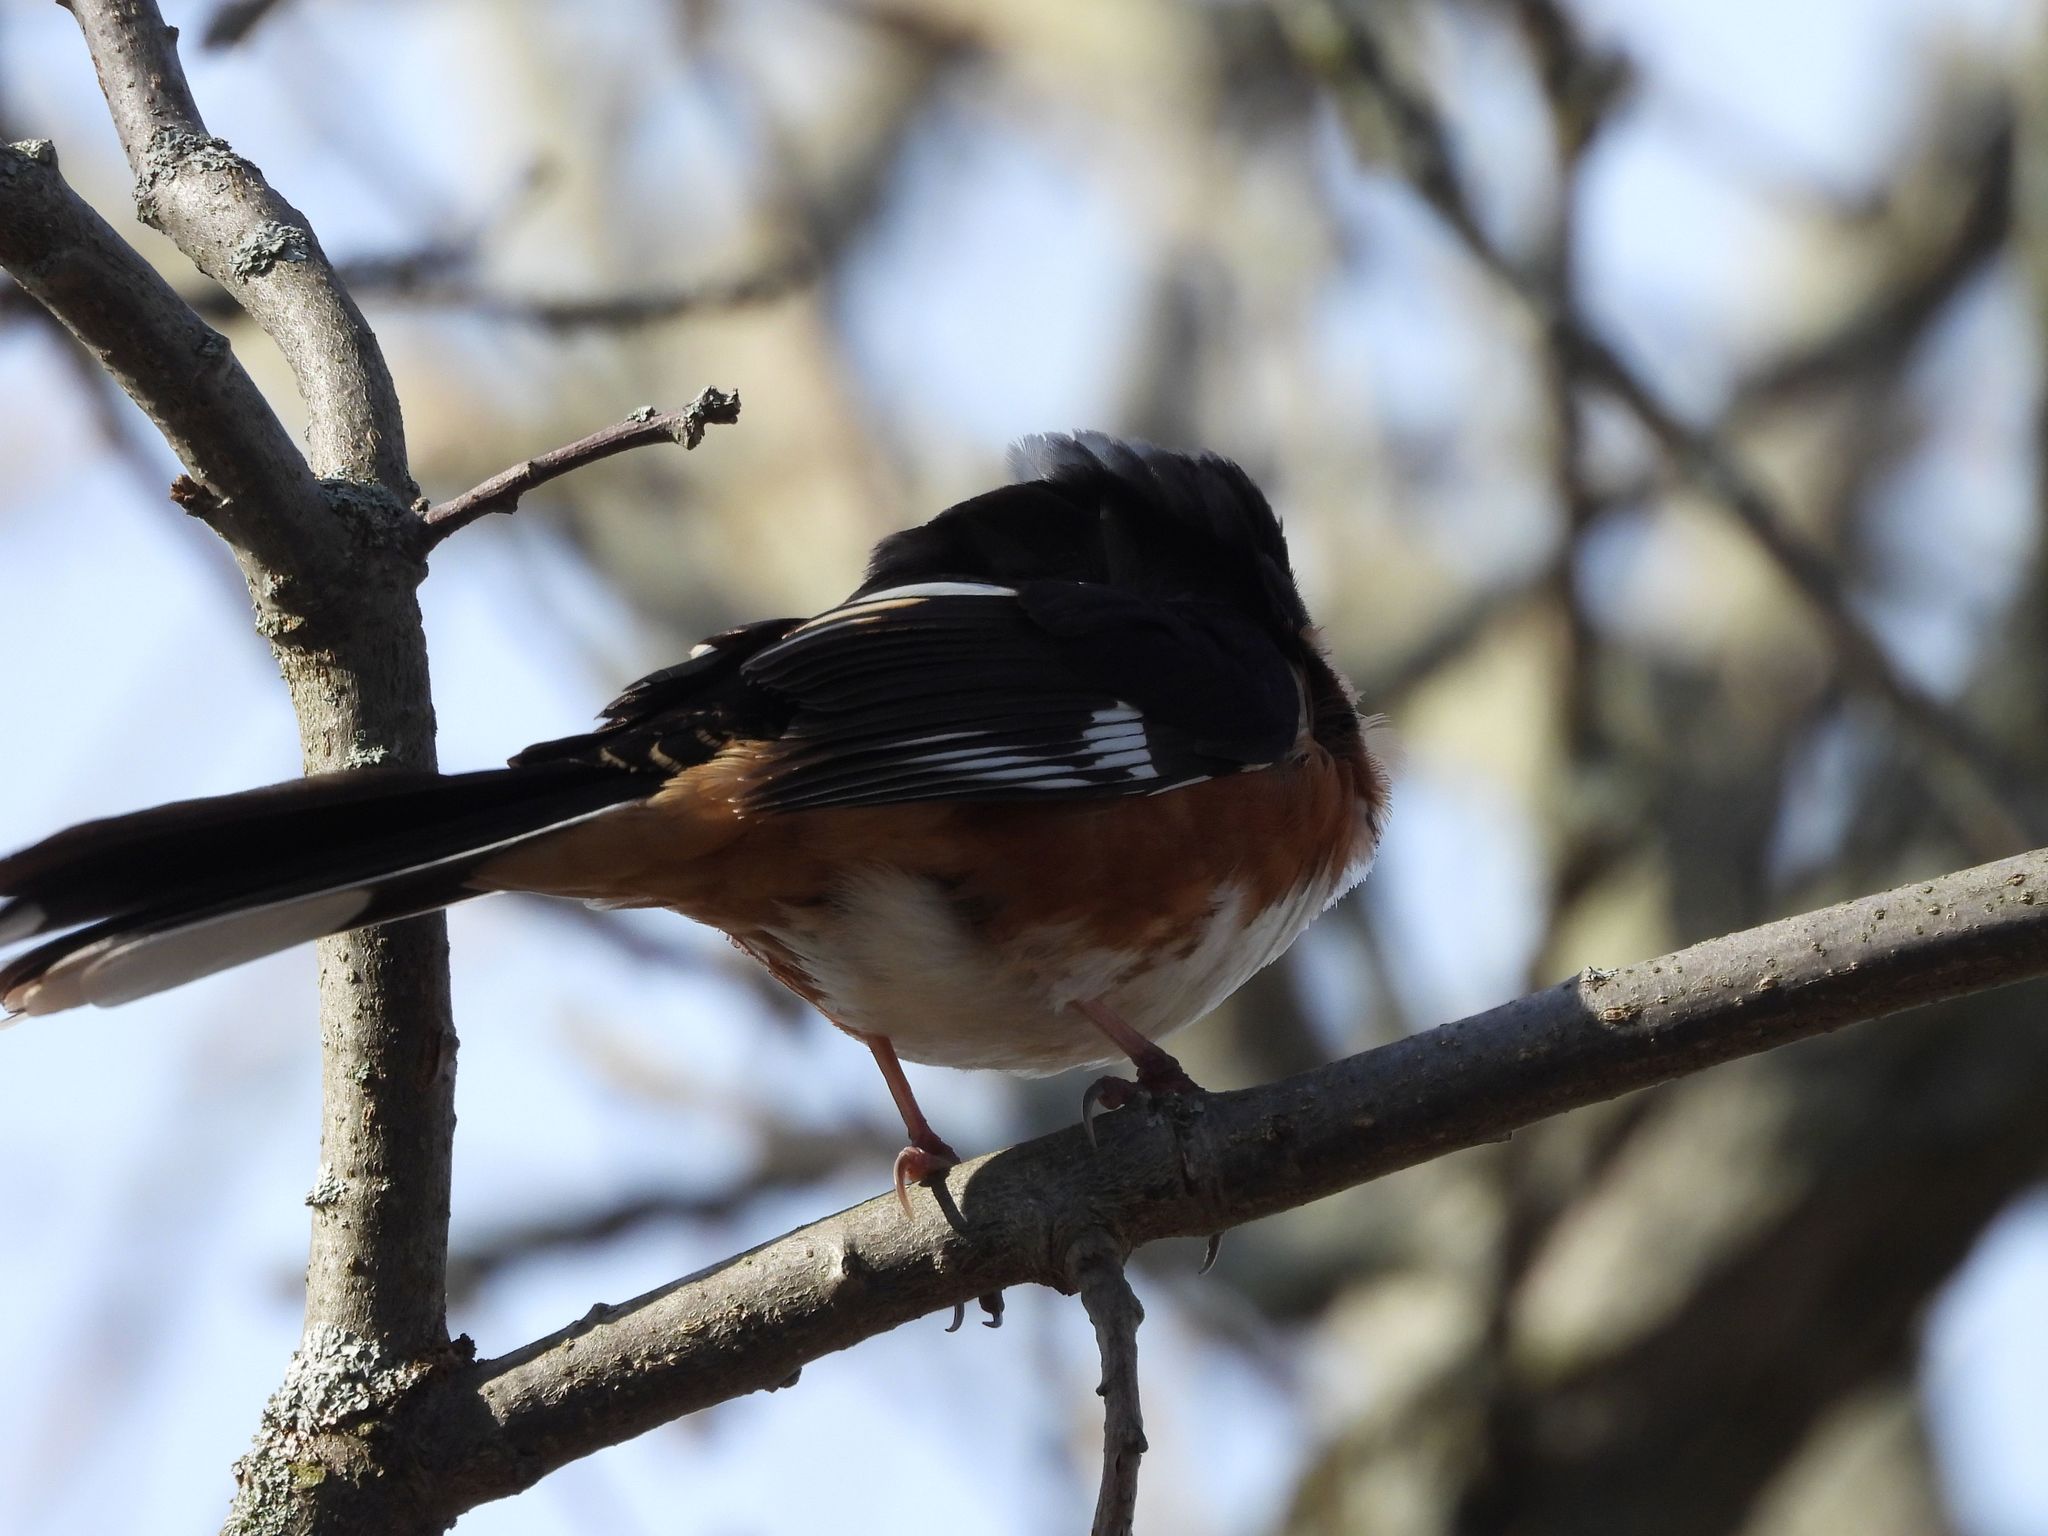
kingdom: Animalia
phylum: Chordata
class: Aves
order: Passeriformes
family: Passerellidae
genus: Pipilo
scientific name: Pipilo erythrophthalmus
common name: Eastern towhee
